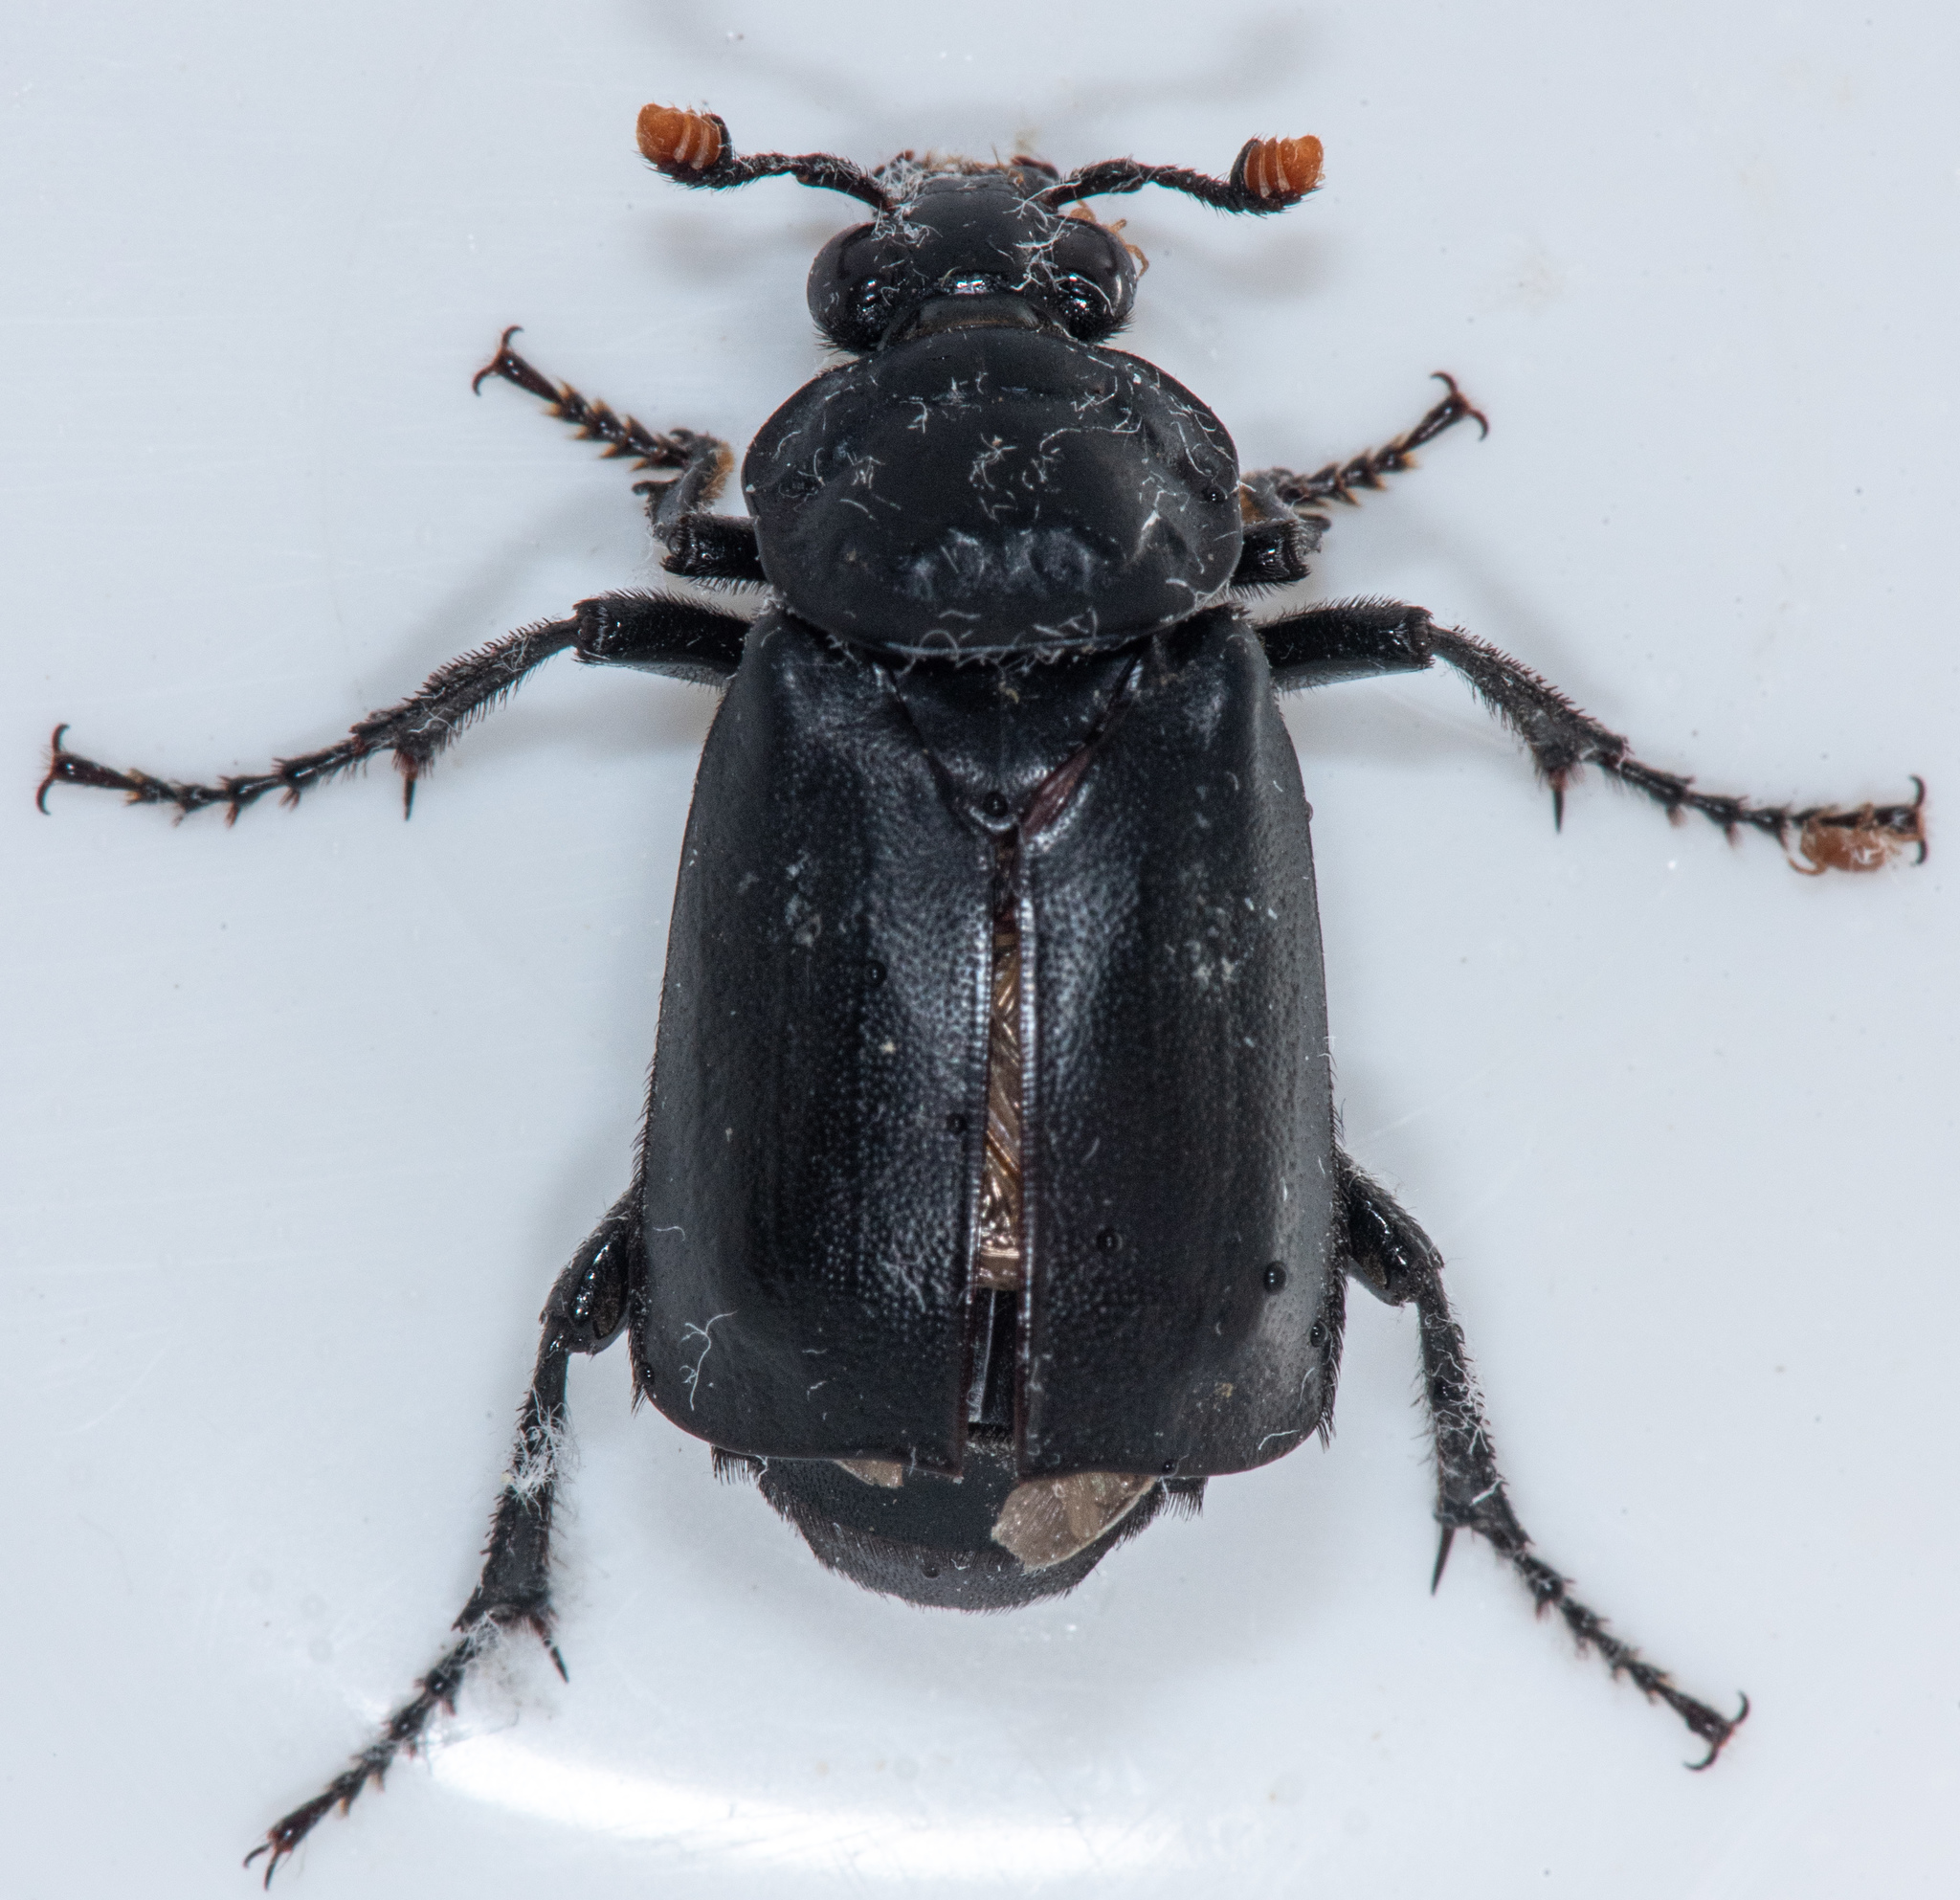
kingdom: Animalia
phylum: Arthropoda
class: Insecta
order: Coleoptera
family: Staphylinidae
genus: Nicrophorus
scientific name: Nicrophorus nigrita
